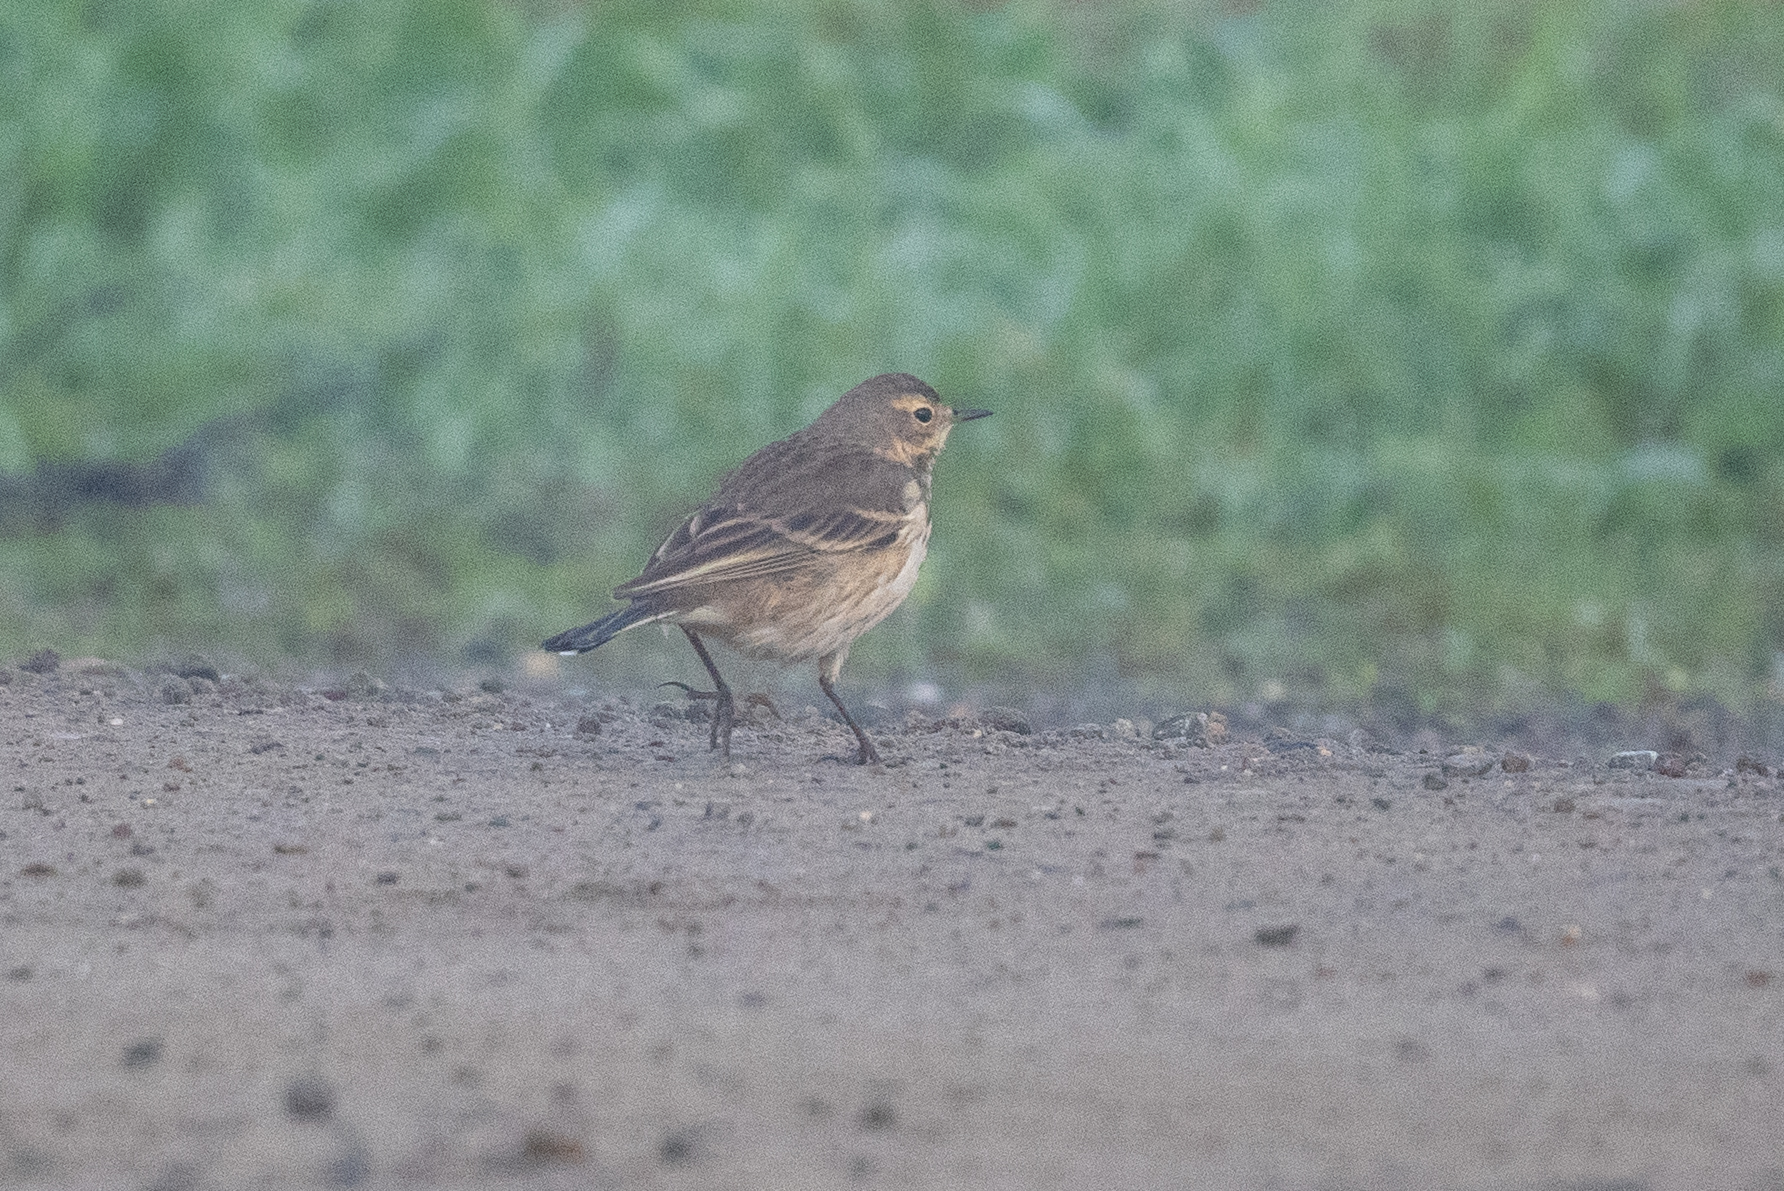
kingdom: Animalia
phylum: Chordata
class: Aves
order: Passeriformes
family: Motacillidae
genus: Anthus
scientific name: Anthus rubescens
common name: Buff-bellied pipit
